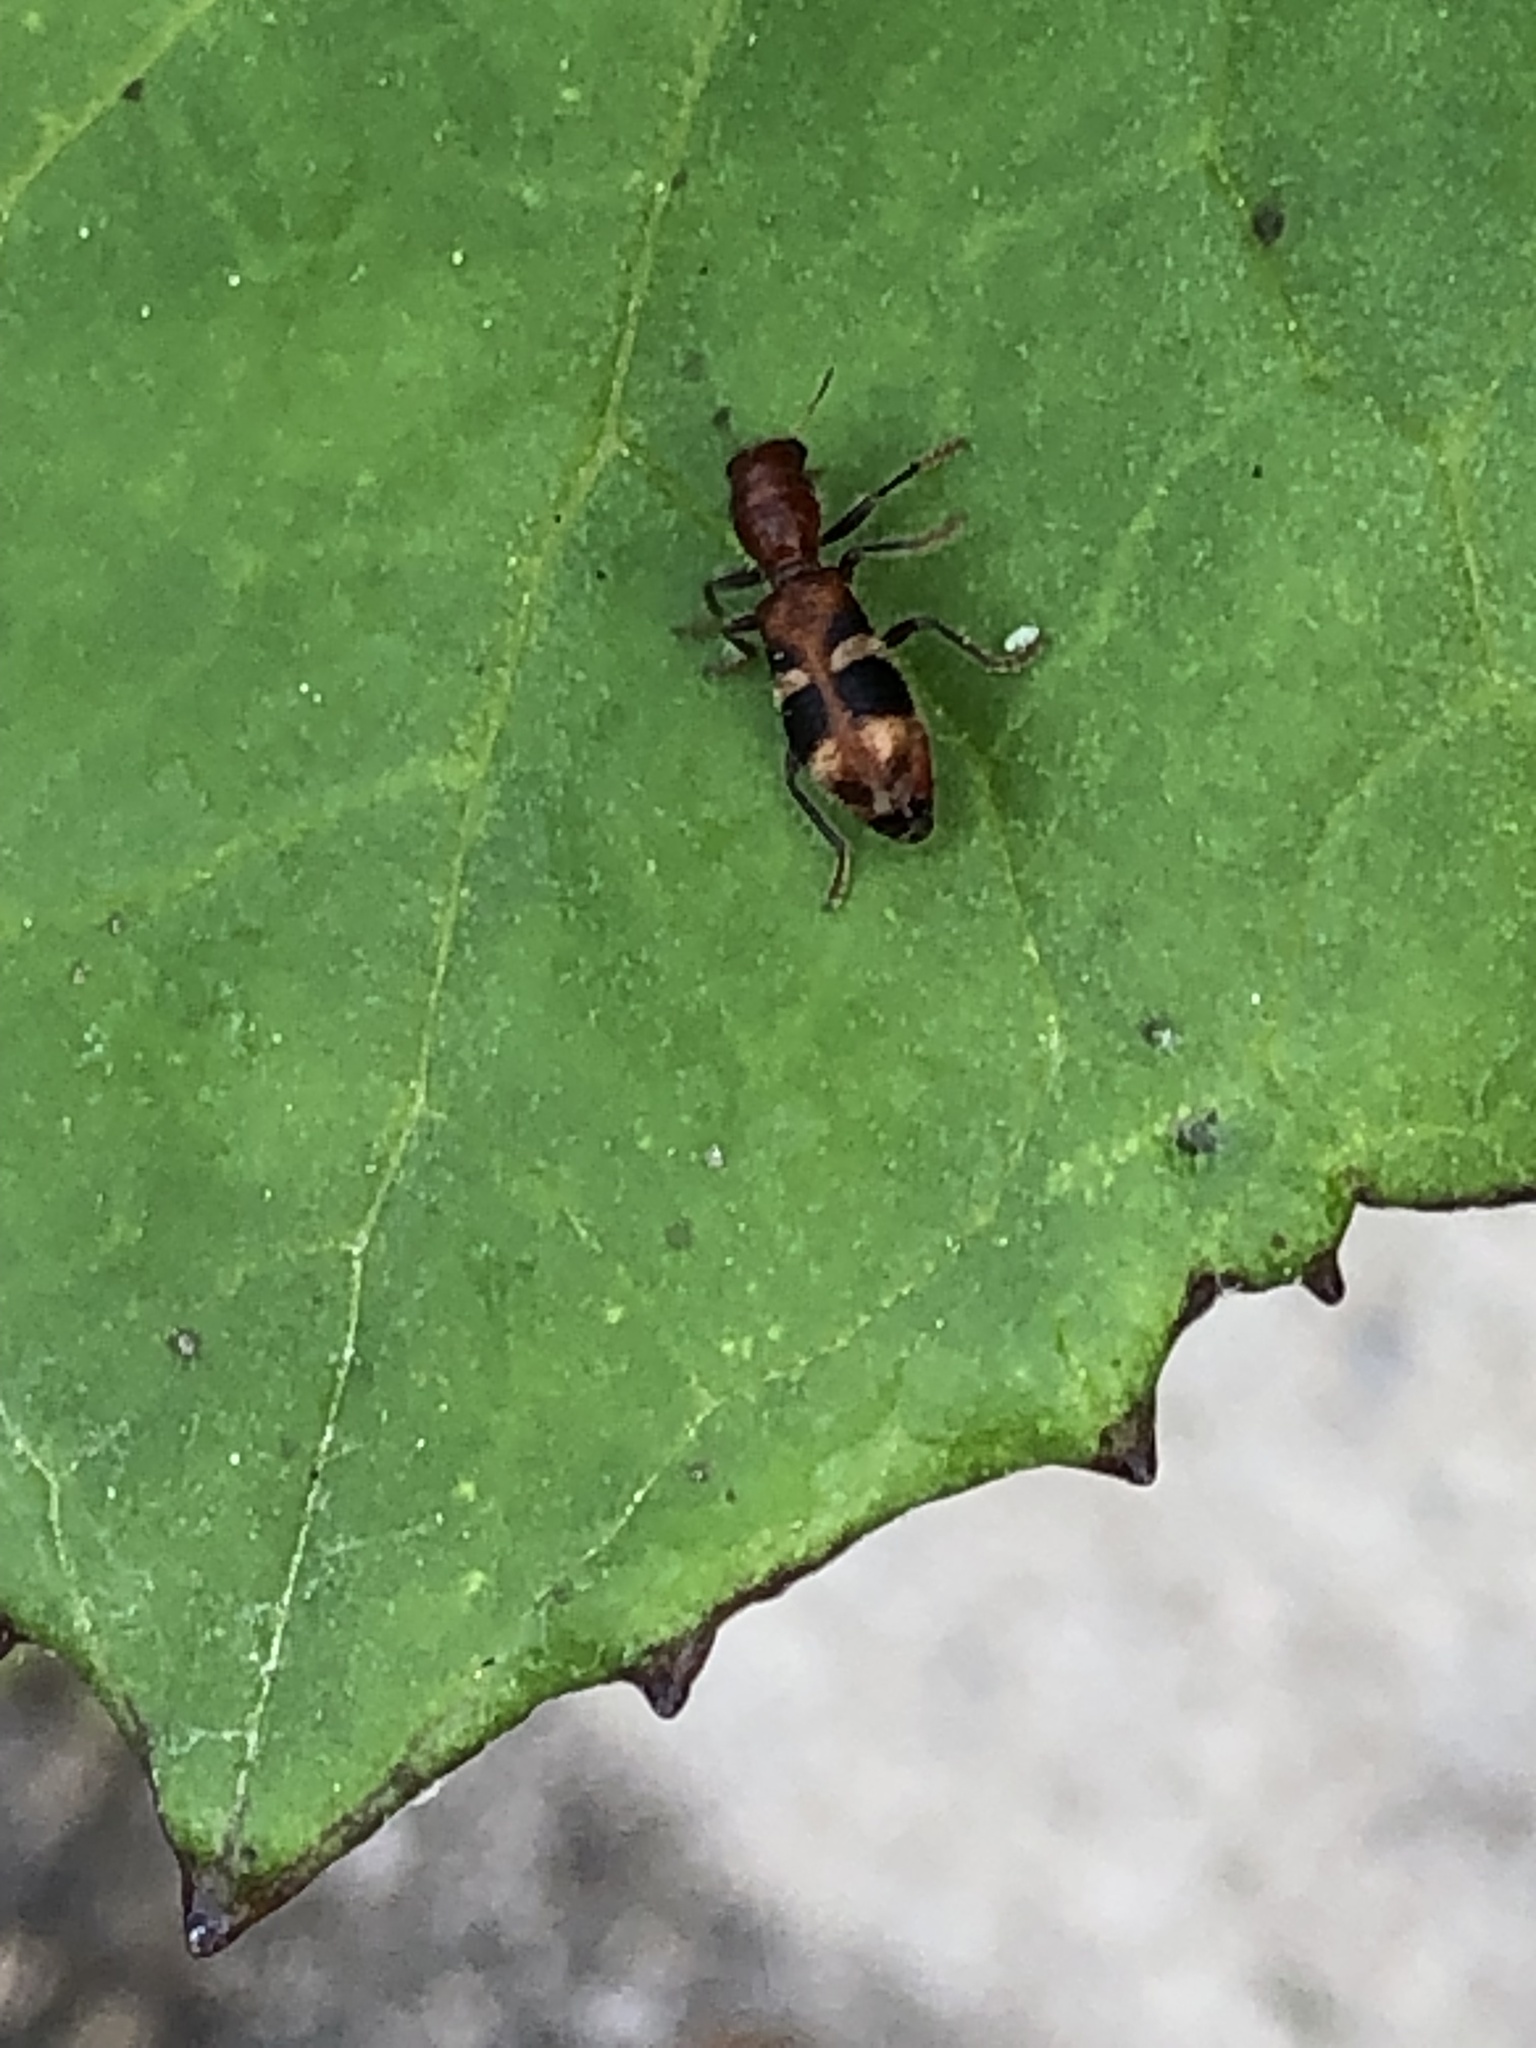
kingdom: Animalia
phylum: Arthropoda
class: Insecta
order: Coleoptera
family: Cleridae
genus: Enoclerus
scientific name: Enoclerus rosmarus
